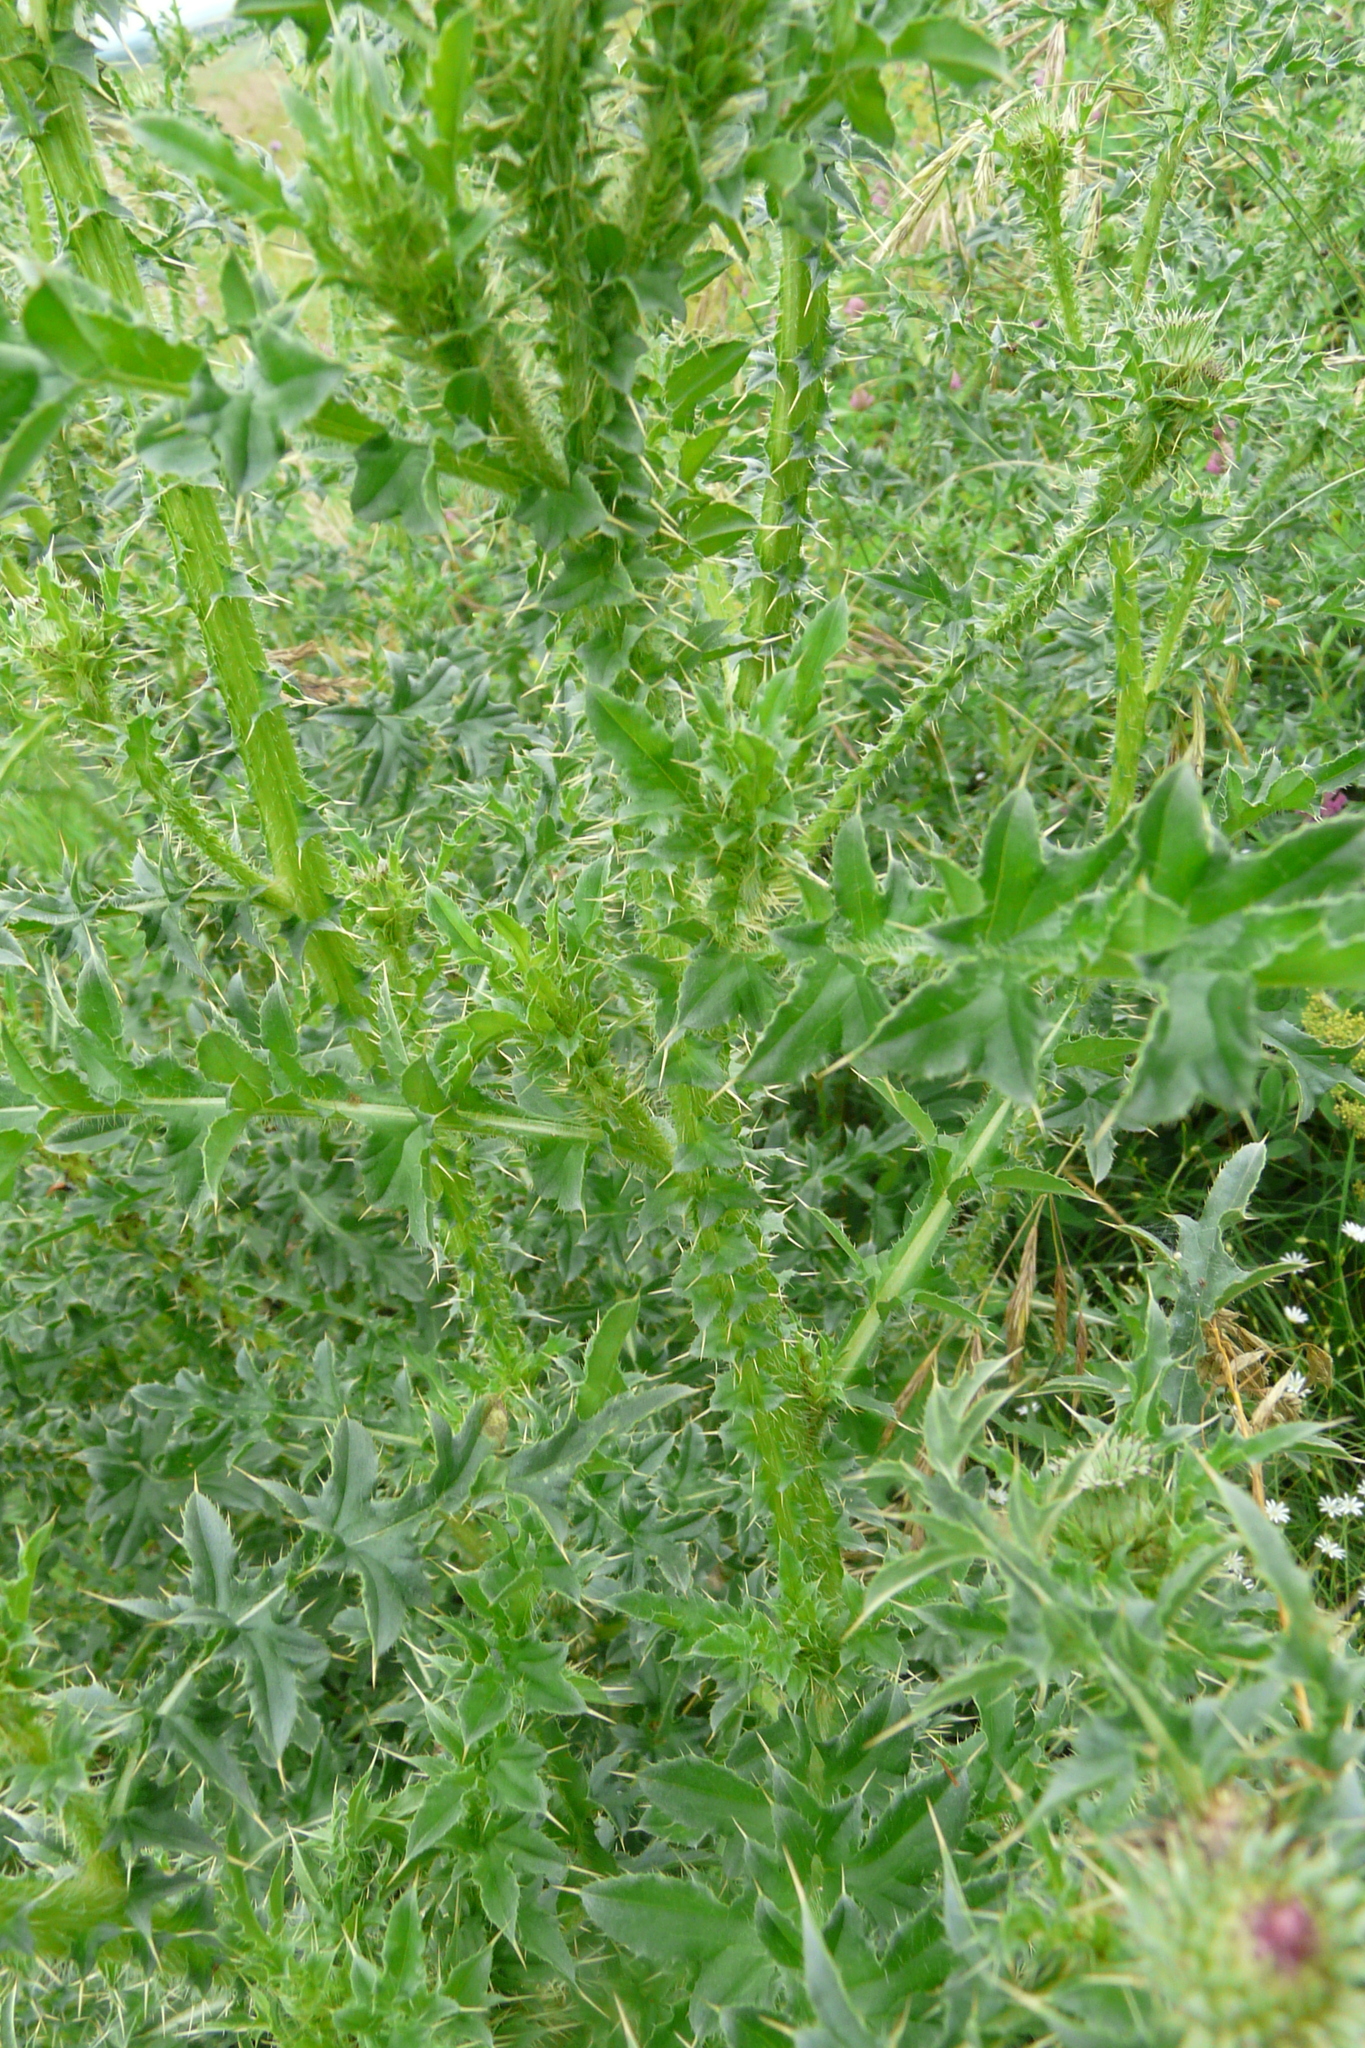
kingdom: Plantae
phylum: Tracheophyta
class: Magnoliopsida
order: Asterales
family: Asteraceae
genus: Carduus
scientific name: Carduus acanthoides
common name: Plumeless thistle
